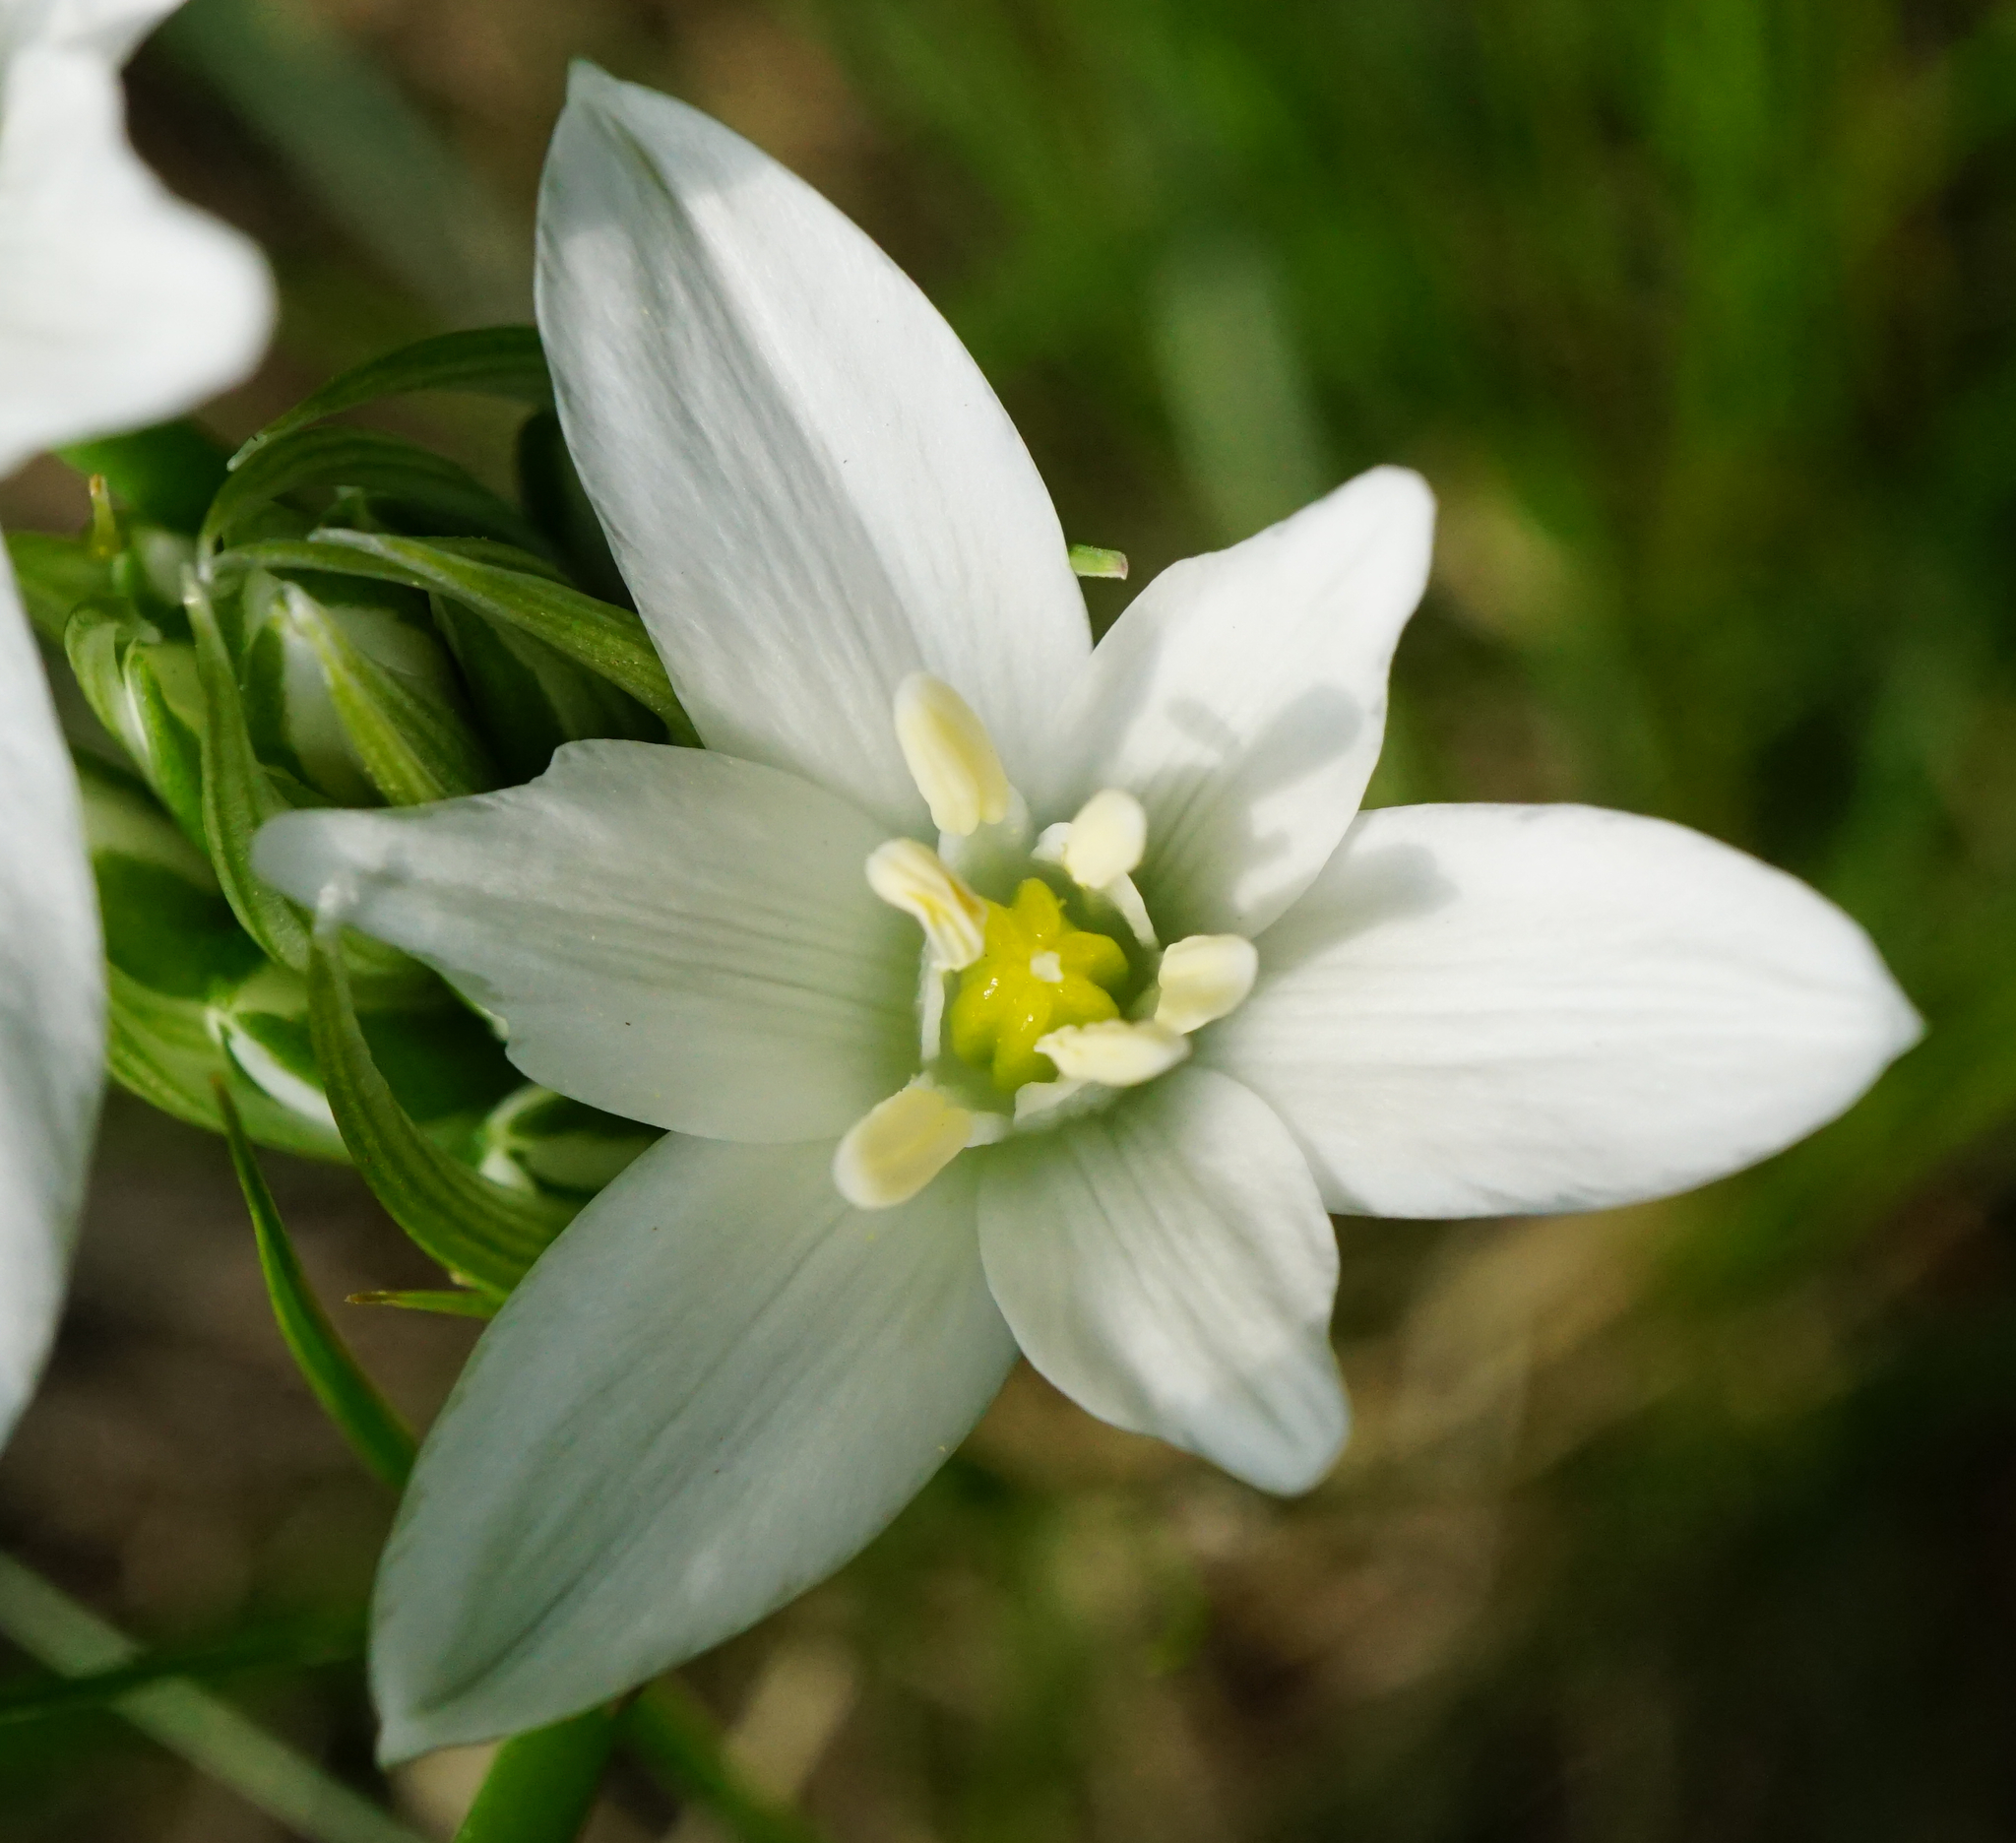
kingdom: Plantae
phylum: Tracheophyta
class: Liliopsida
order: Asparagales
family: Asparagaceae
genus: Ornithogalum
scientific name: Ornithogalum orthophyllum
